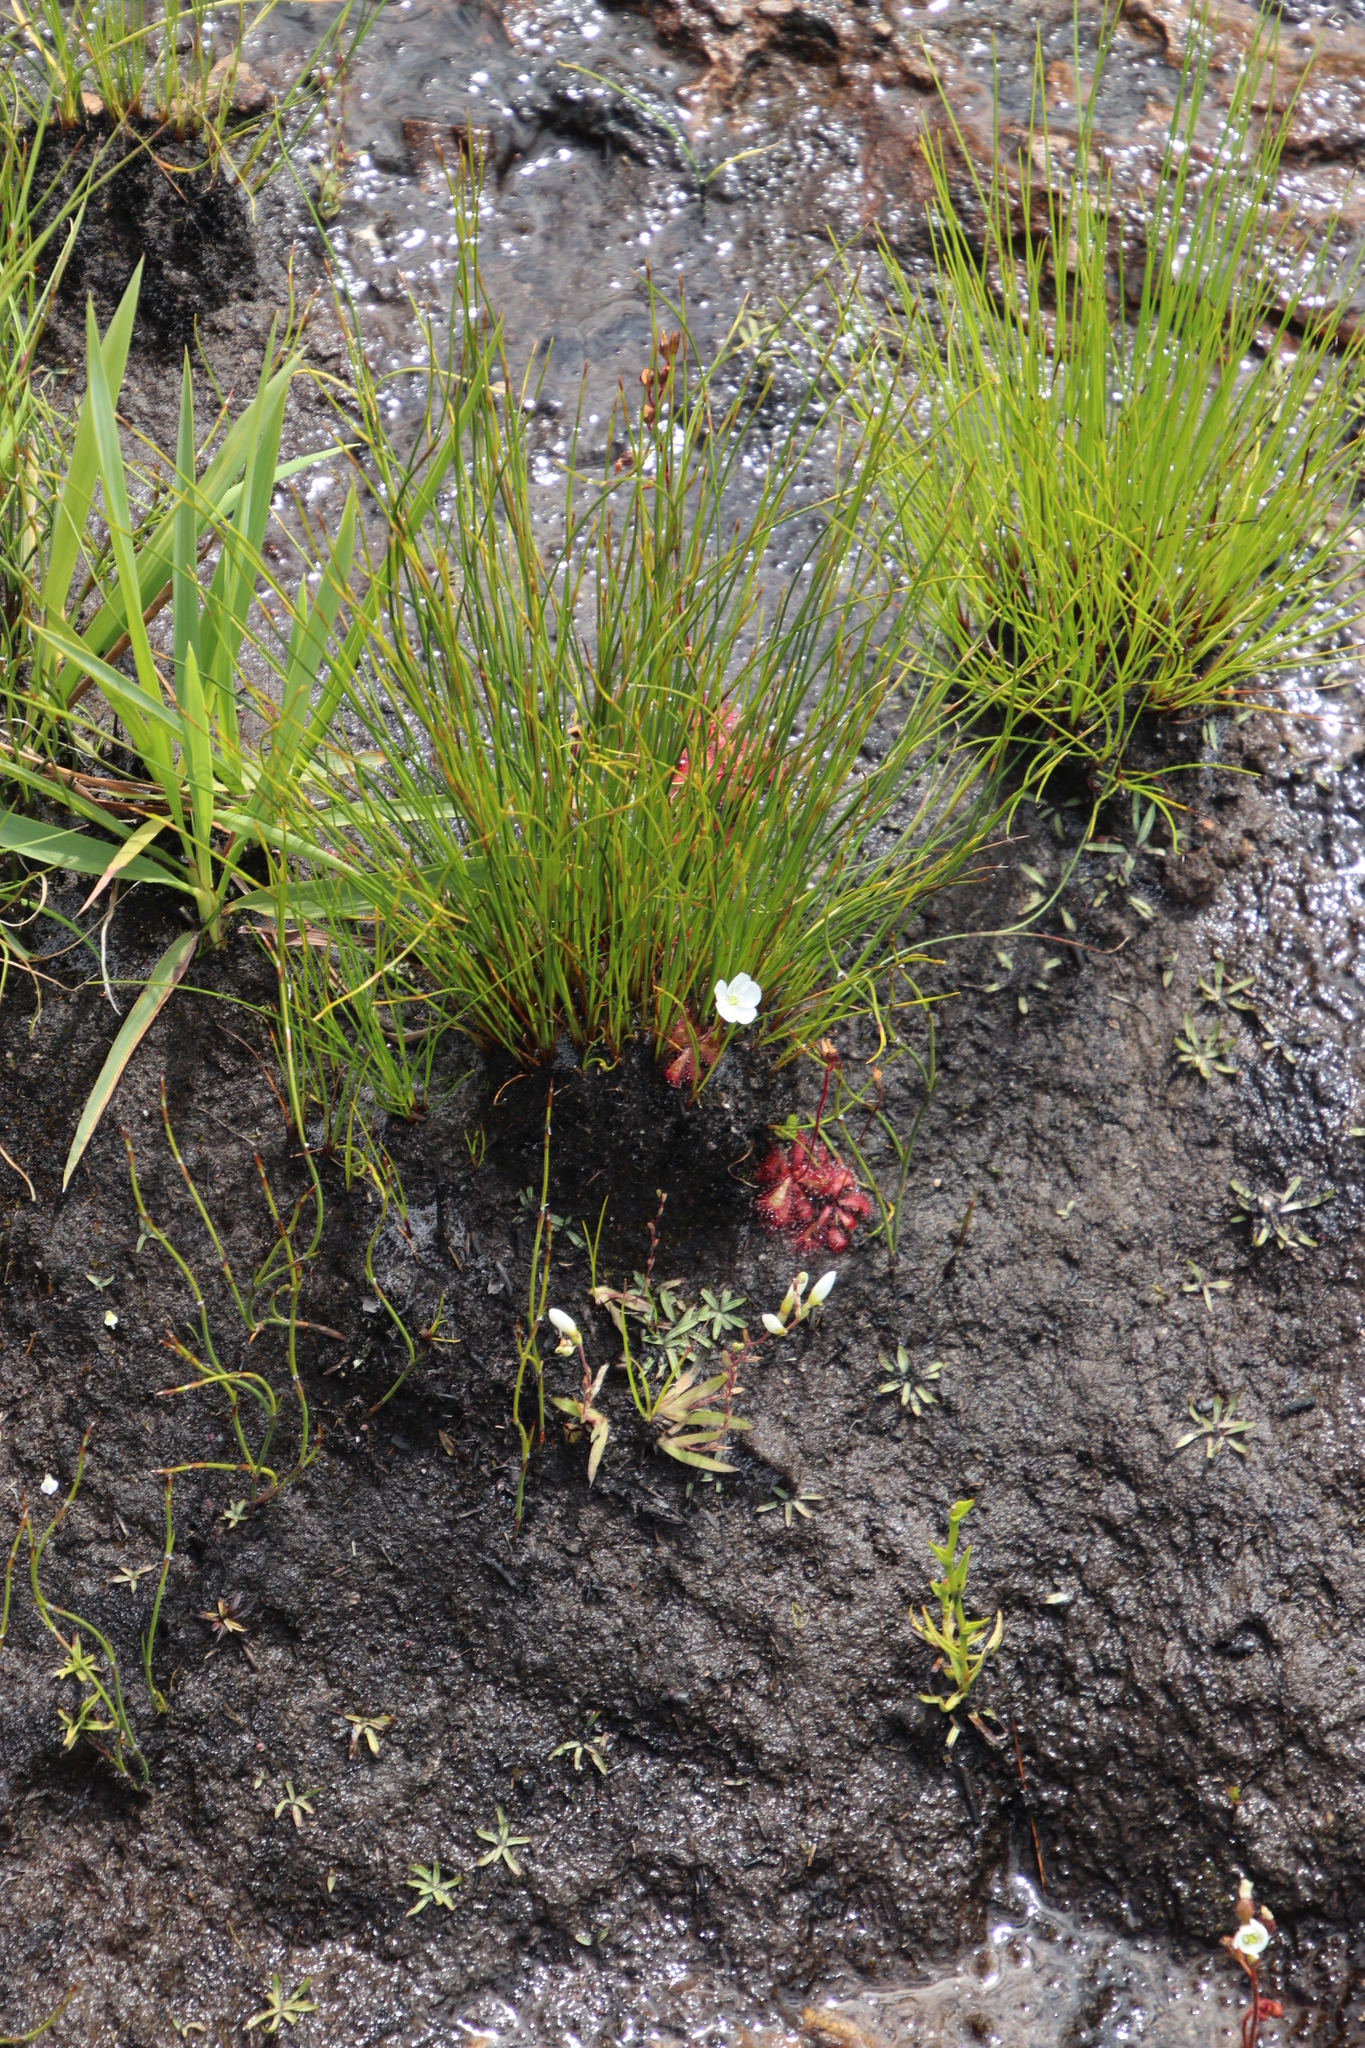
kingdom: Plantae
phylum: Tracheophyta
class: Magnoliopsida
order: Caryophyllales
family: Droseraceae
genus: Drosera
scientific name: Drosera trinervia
